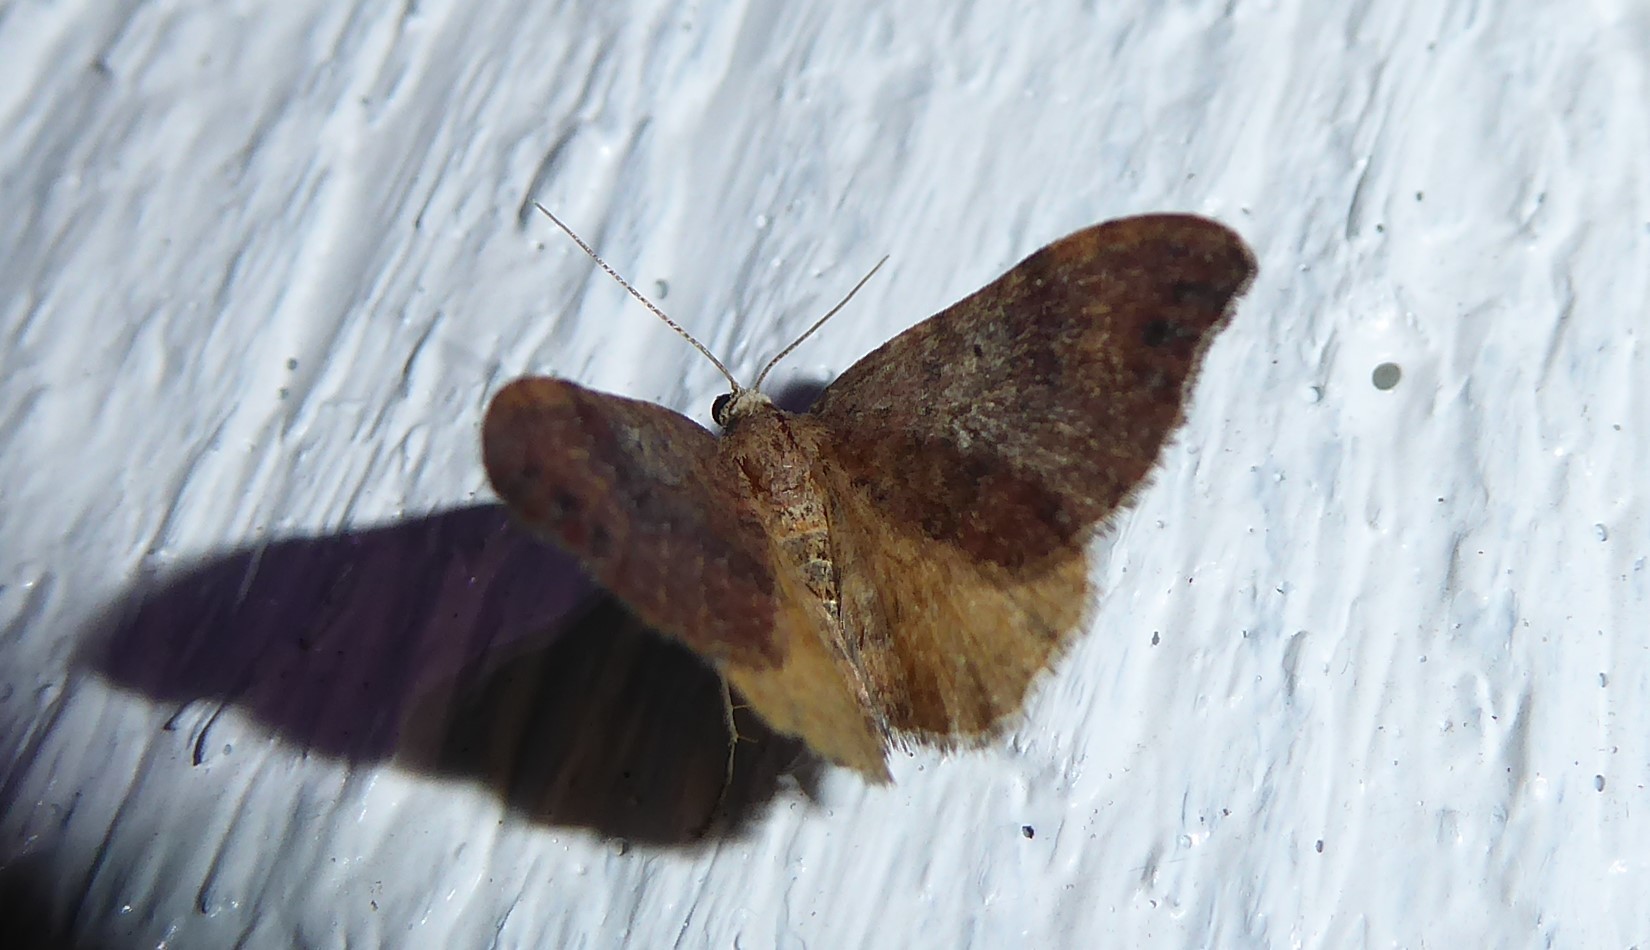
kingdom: Animalia
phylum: Arthropoda
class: Insecta
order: Lepidoptera
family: Geometridae
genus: Homodotis
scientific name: Homodotis megaspilata
